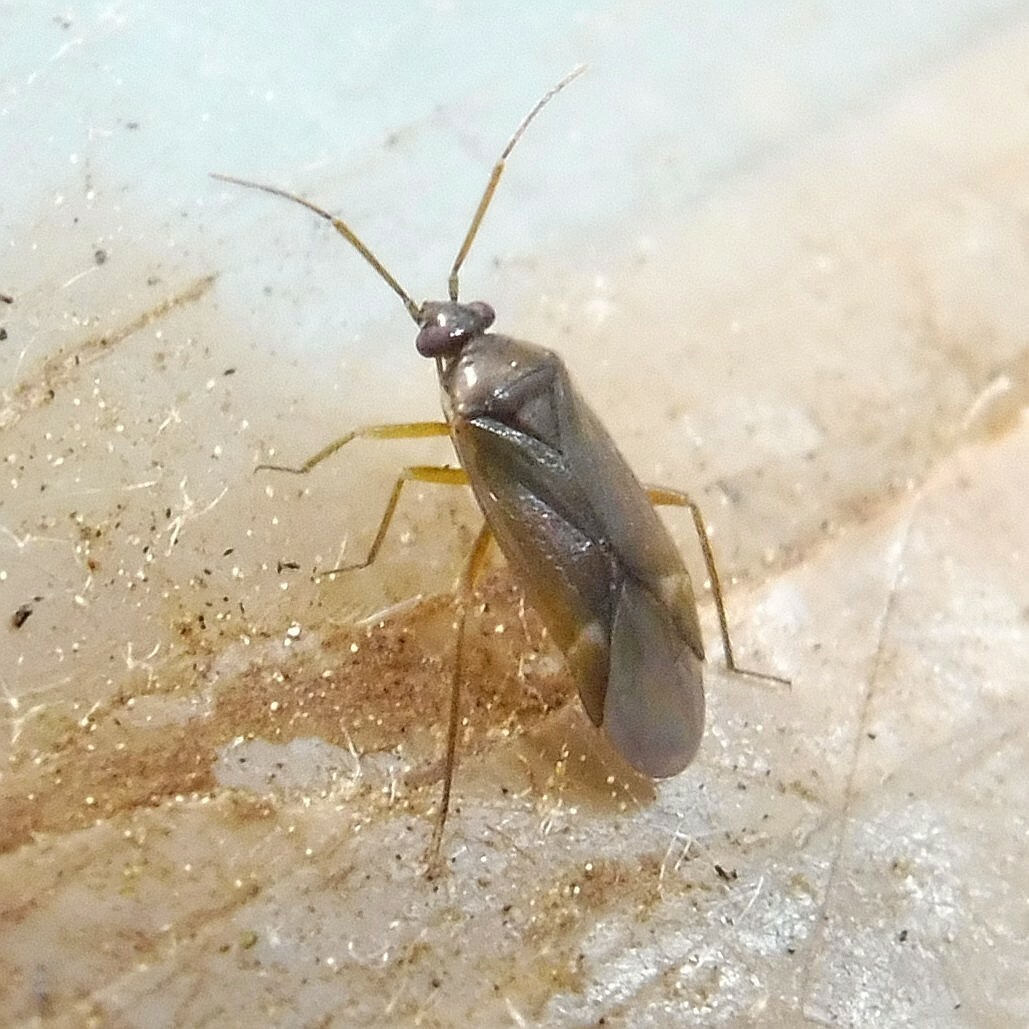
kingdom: Animalia
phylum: Arthropoda
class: Insecta
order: Hemiptera
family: Miridae
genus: Plesiodema
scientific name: Plesiodema pinetella
